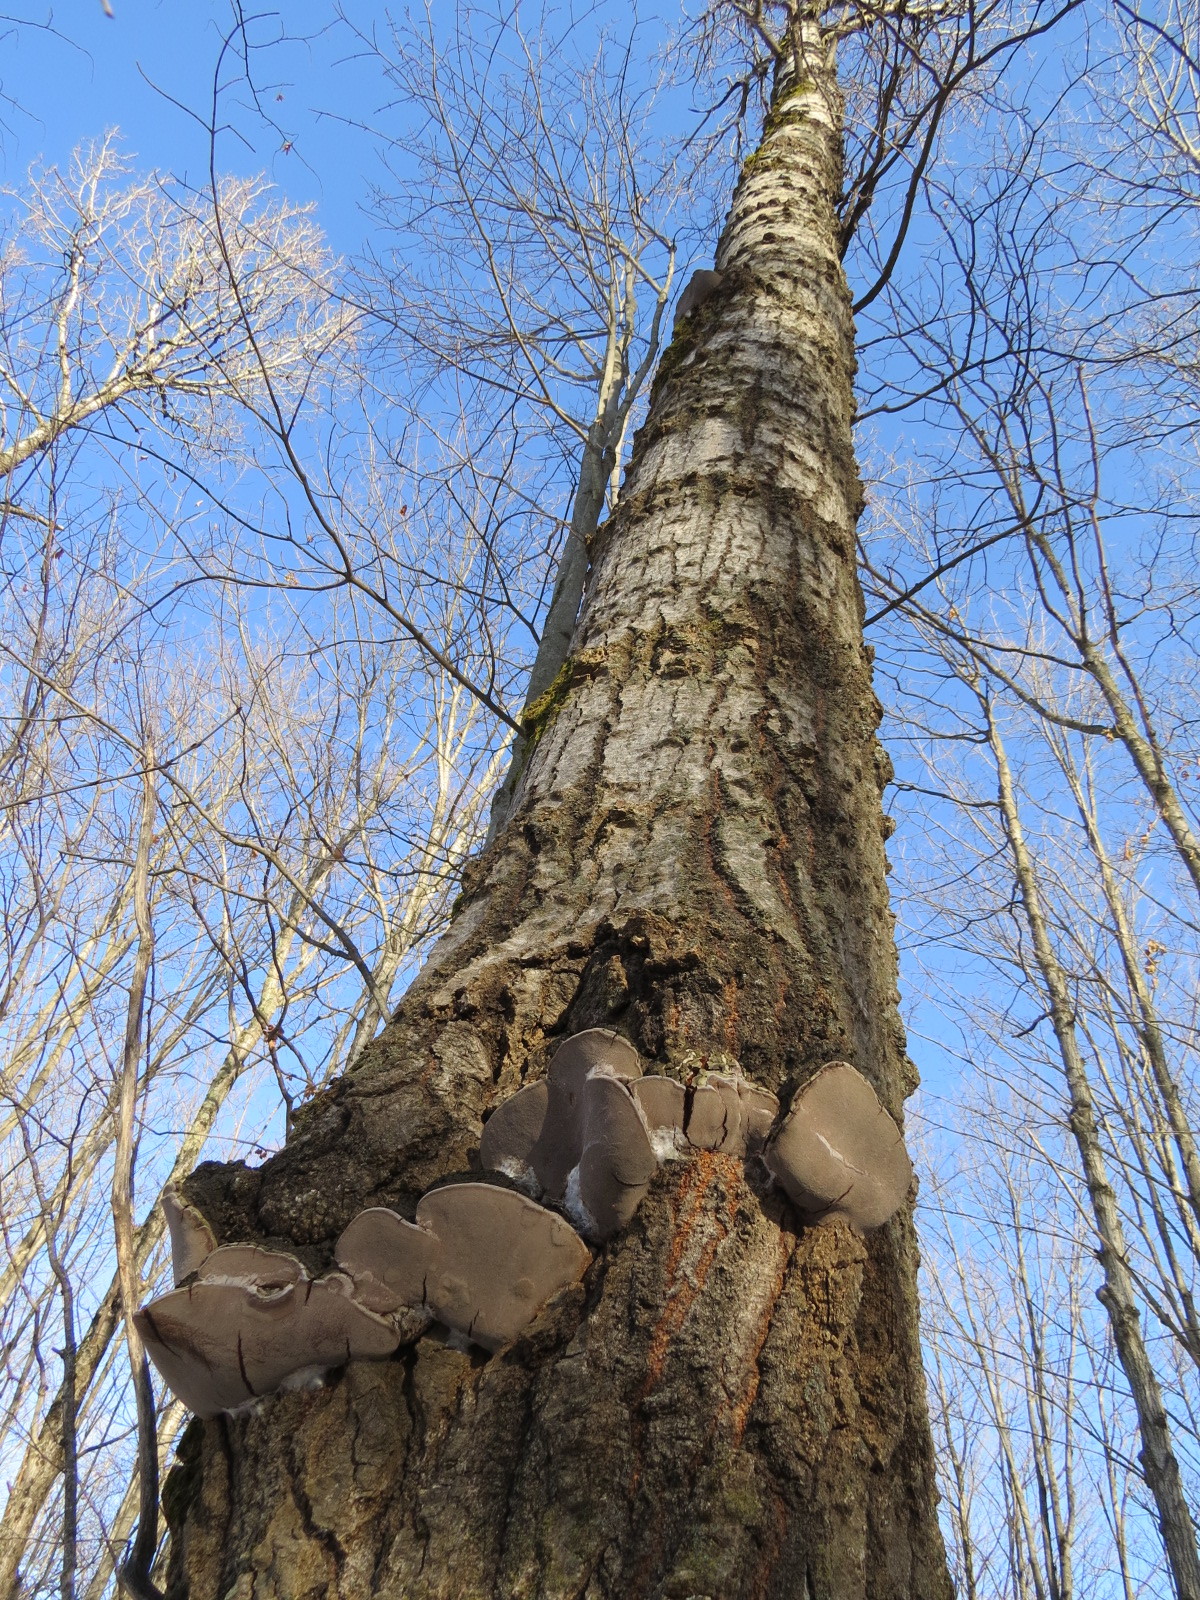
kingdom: Fungi
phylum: Basidiomycota
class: Agaricomycetes
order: Hymenochaetales
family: Hymenochaetaceae
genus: Phellinus
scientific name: Phellinus tremulae
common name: Aspen bracket
